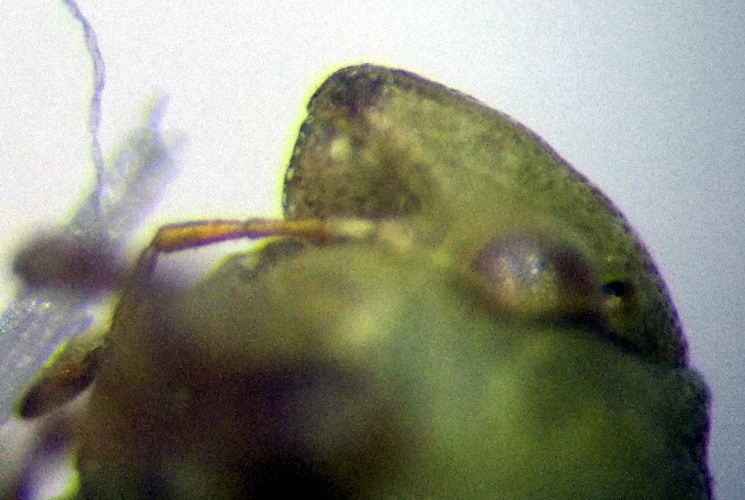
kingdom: Animalia
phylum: Arthropoda
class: Insecta
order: Hemiptera
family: Pentatomidae
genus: Tarisa
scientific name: Tarisa subspinosa
